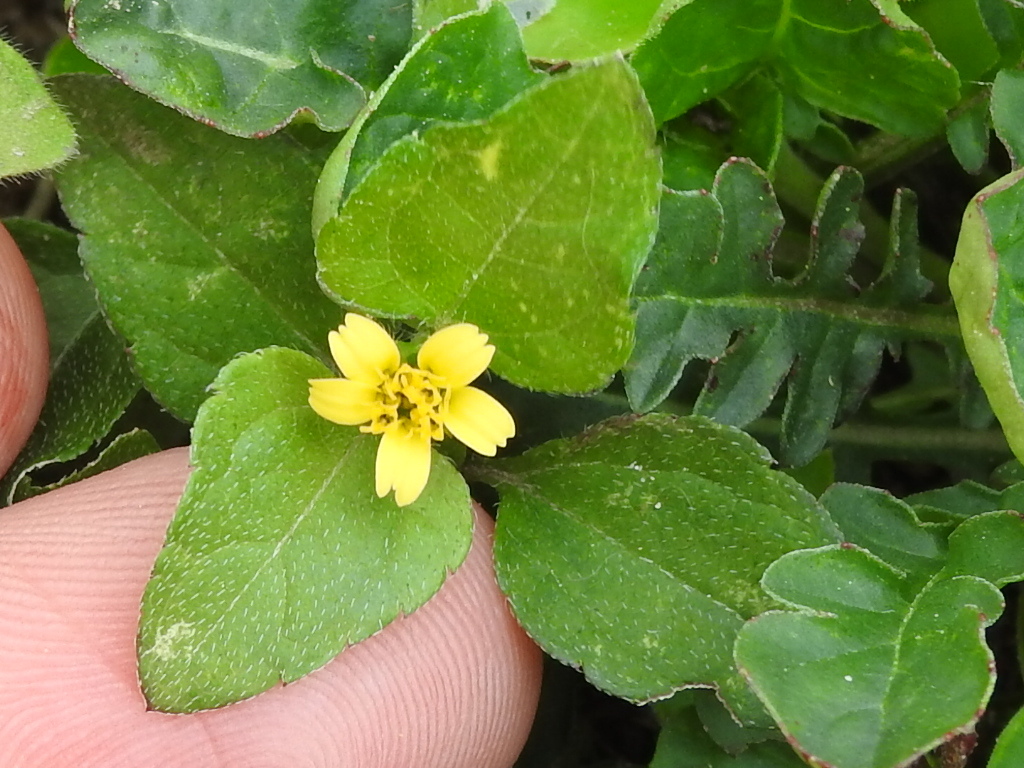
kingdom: Plantae
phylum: Tracheophyta
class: Magnoliopsida
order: Asterales
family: Asteraceae
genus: Calyptocarpus
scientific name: Calyptocarpus vialis
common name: Straggler daisy
